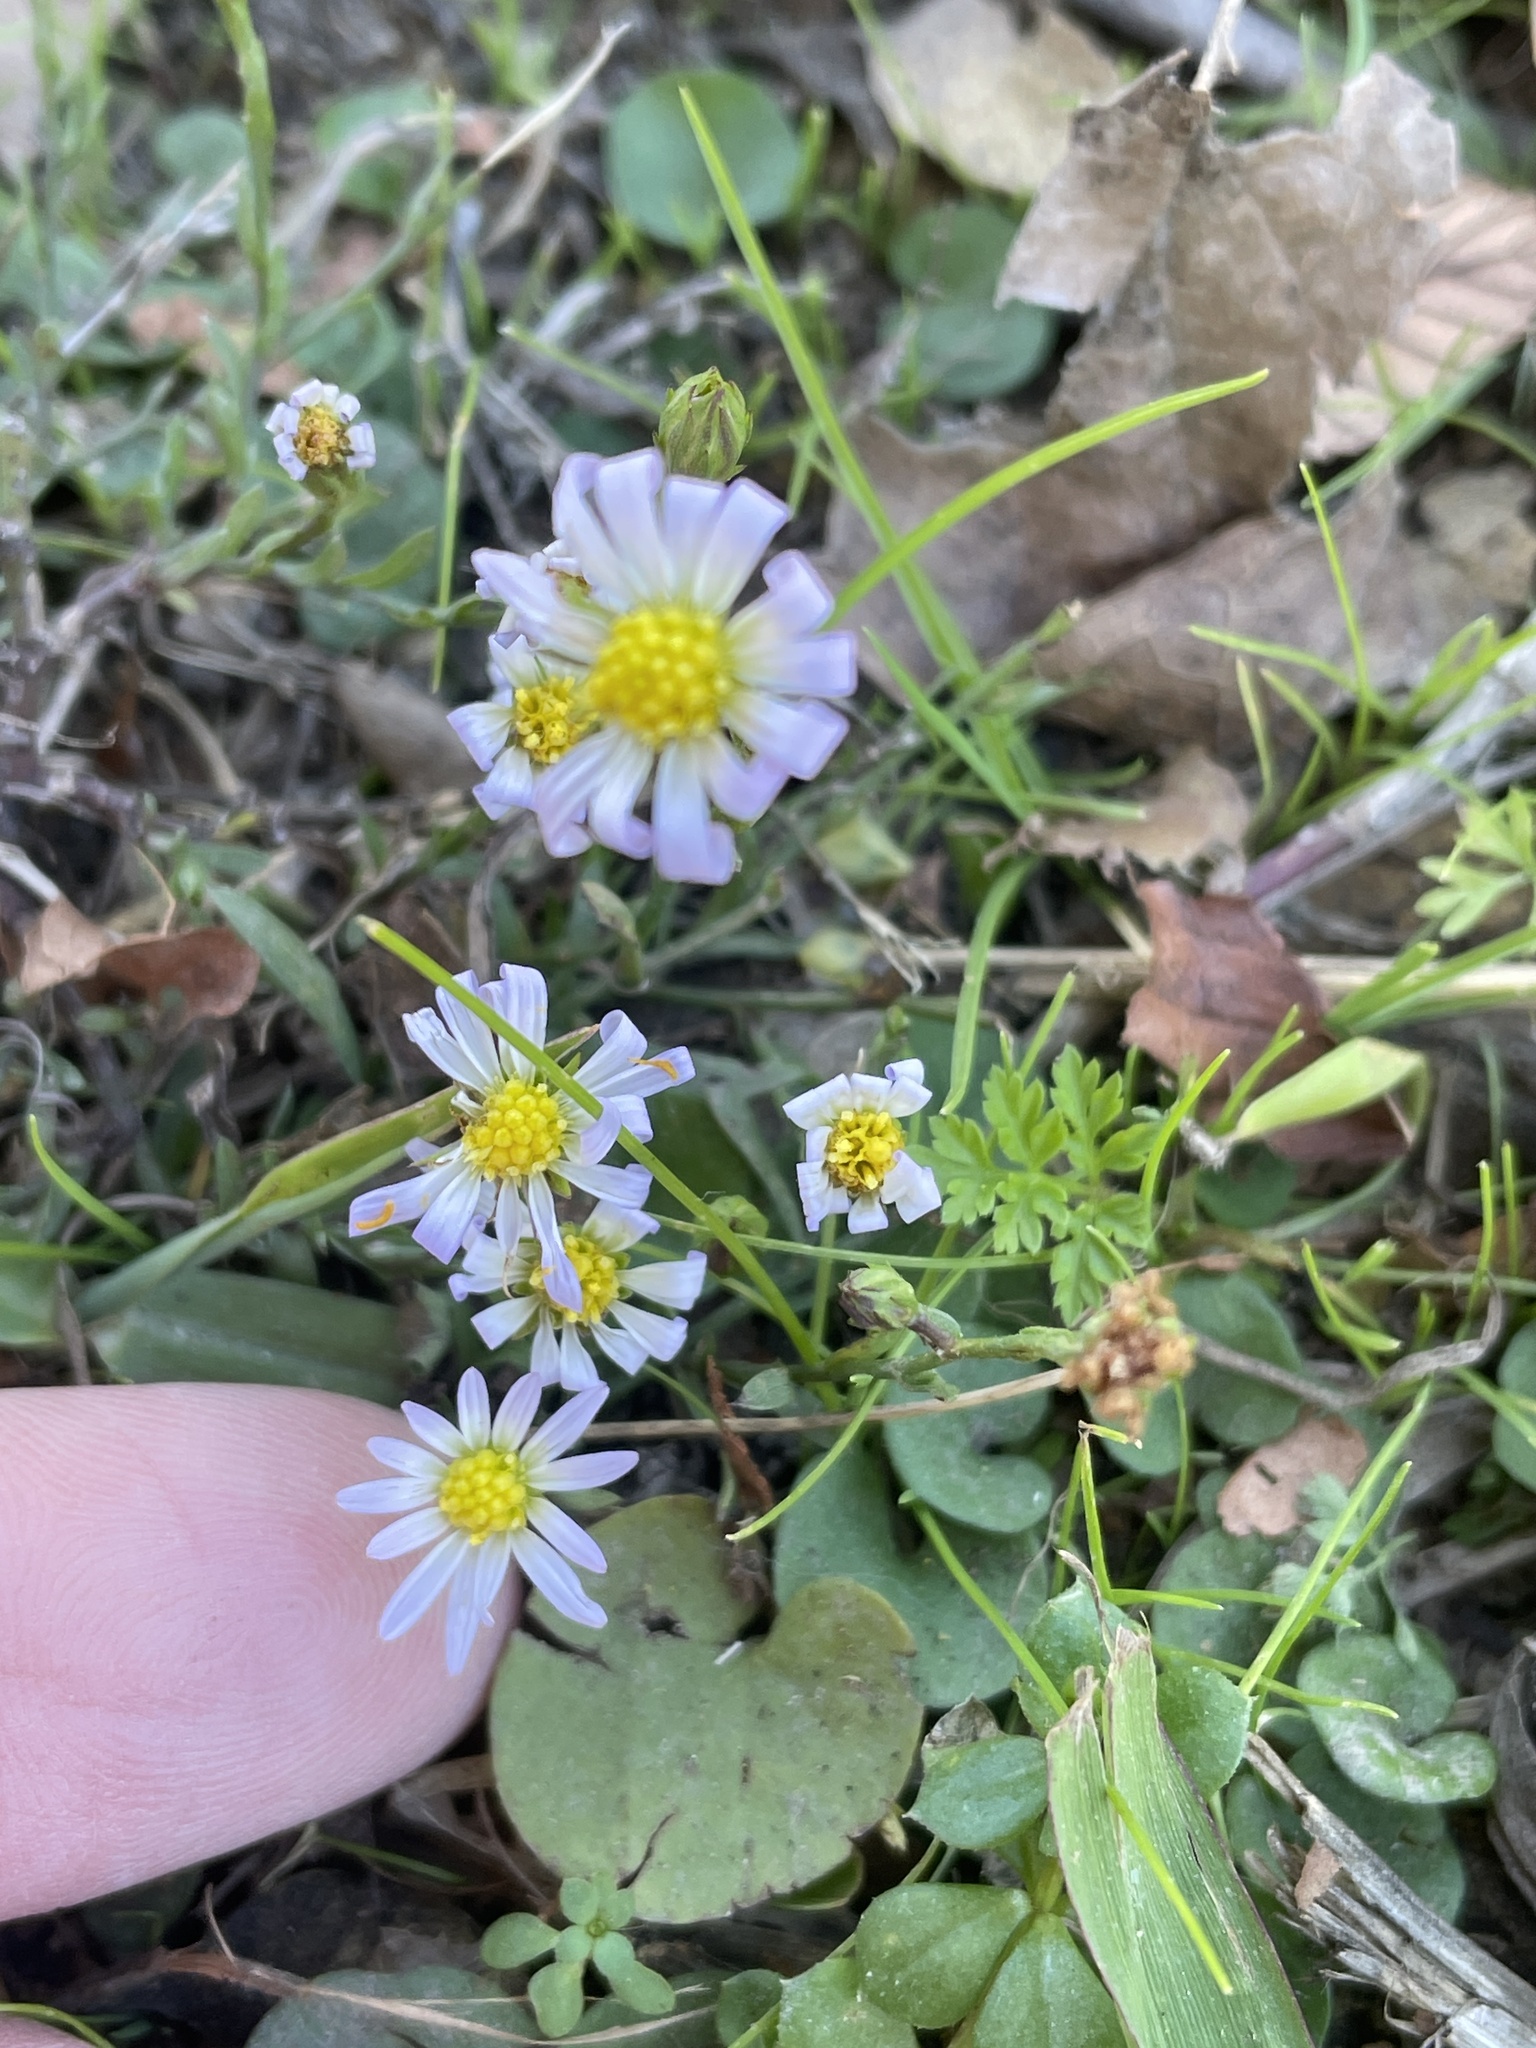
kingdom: Plantae
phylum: Tracheophyta
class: Magnoliopsida
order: Asterales
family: Asteraceae
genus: Symphyotrichum
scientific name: Symphyotrichum divaricatum
